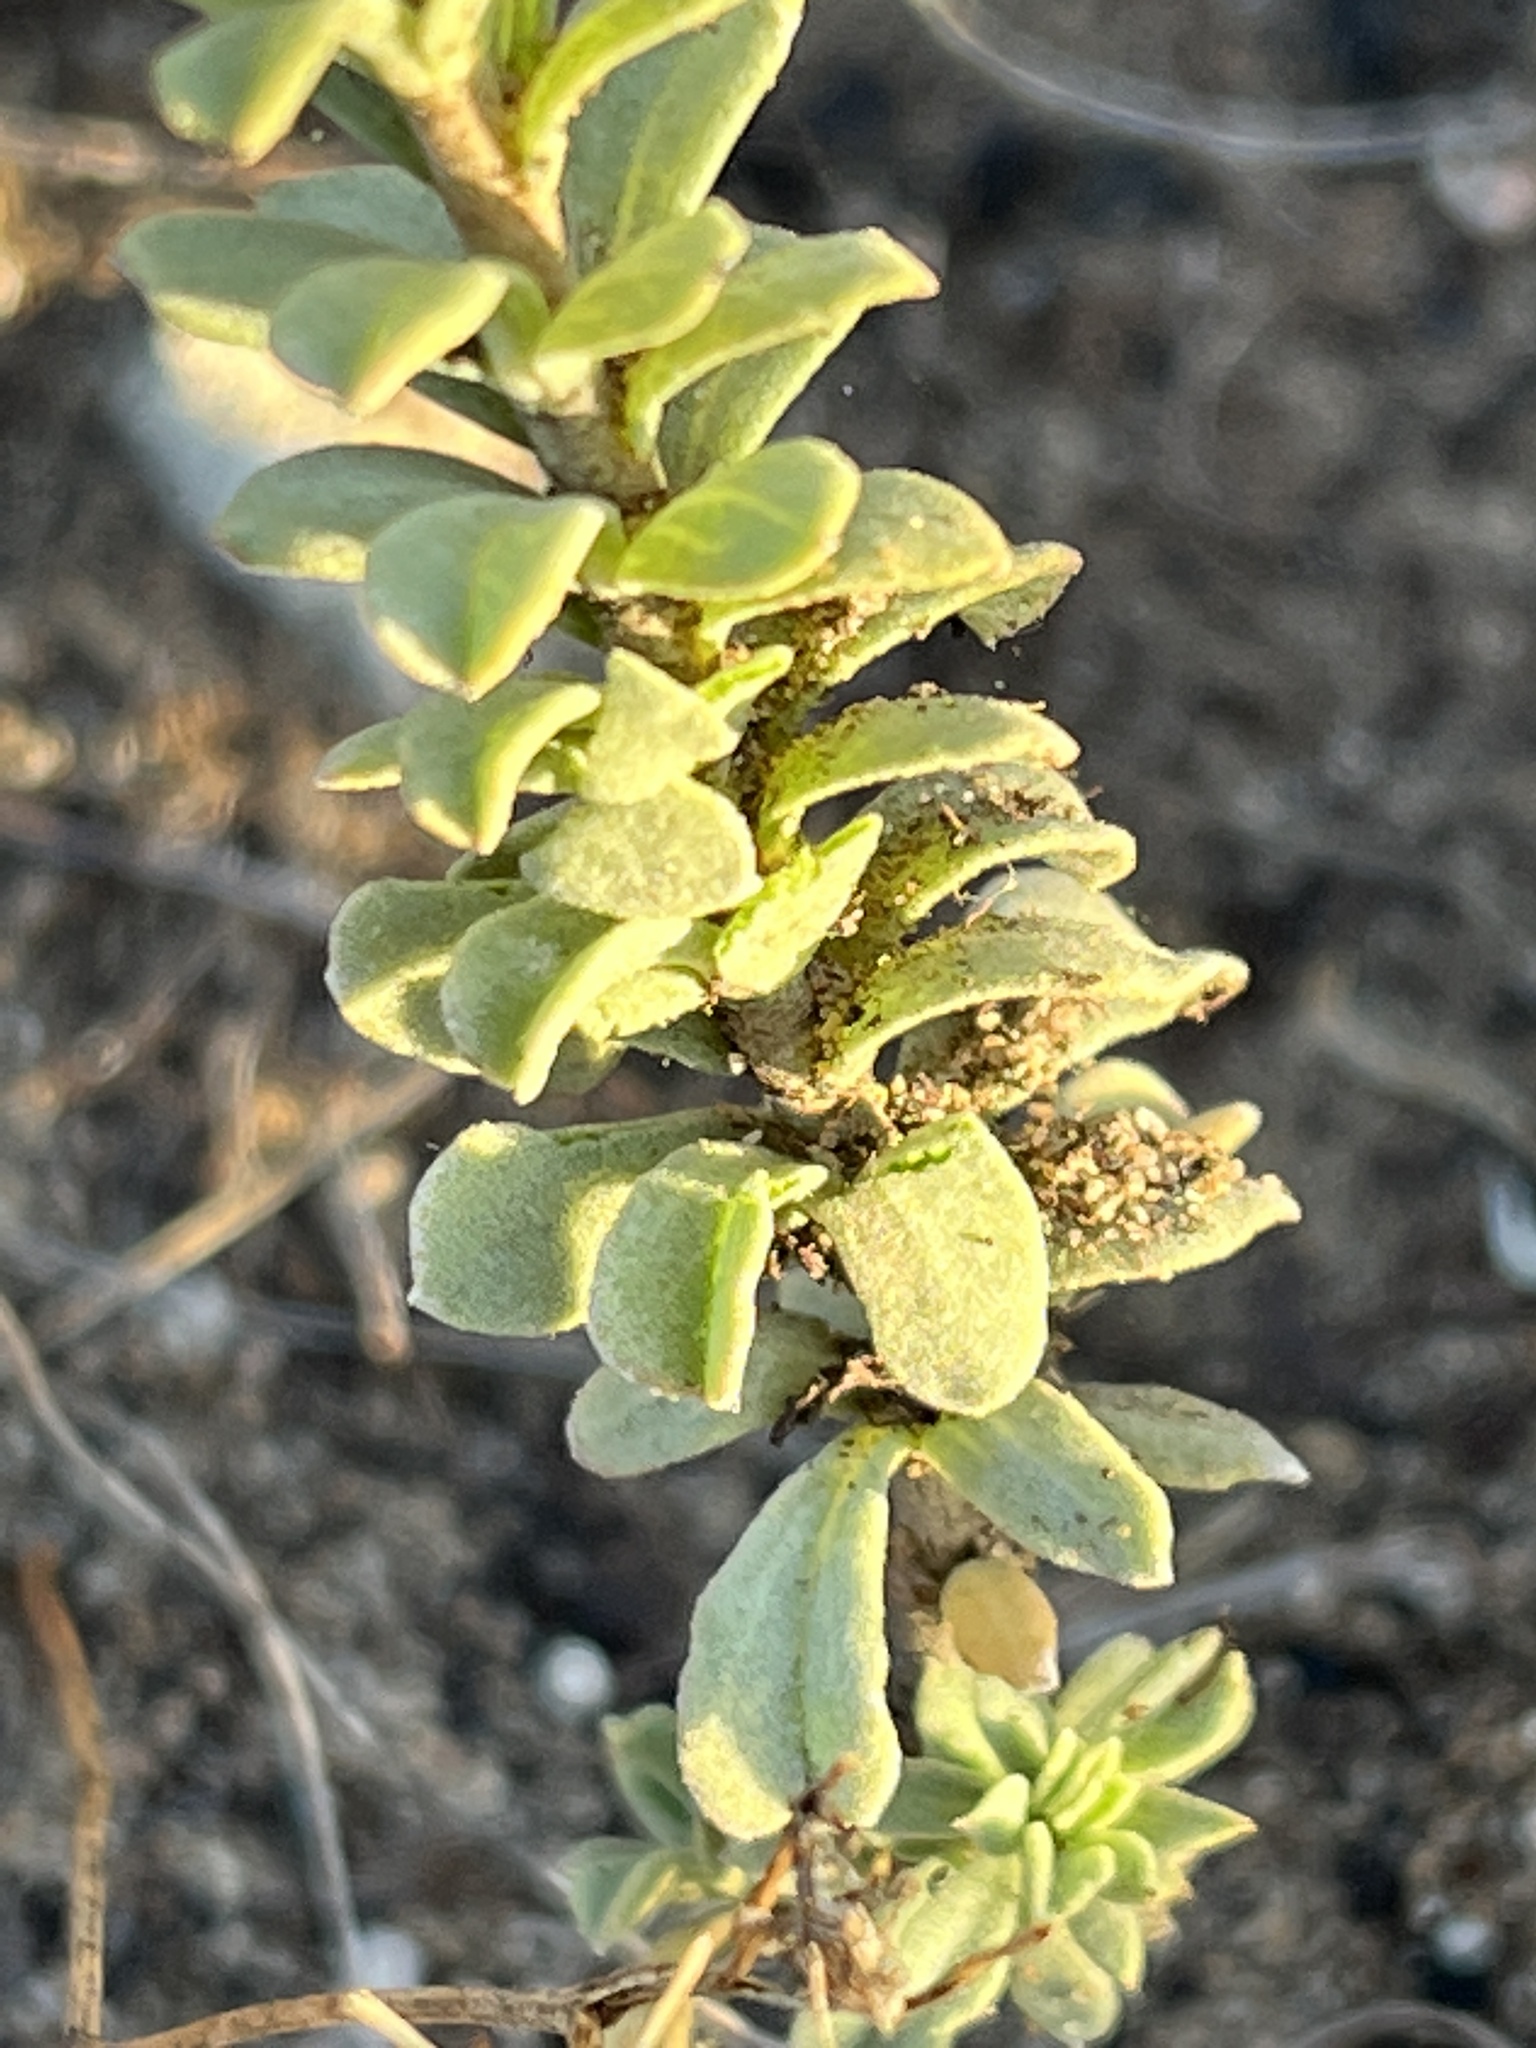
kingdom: Plantae
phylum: Tracheophyta
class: Magnoliopsida
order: Malvales
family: Malvaceae
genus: Hermannia
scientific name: Hermannia trifoliata
